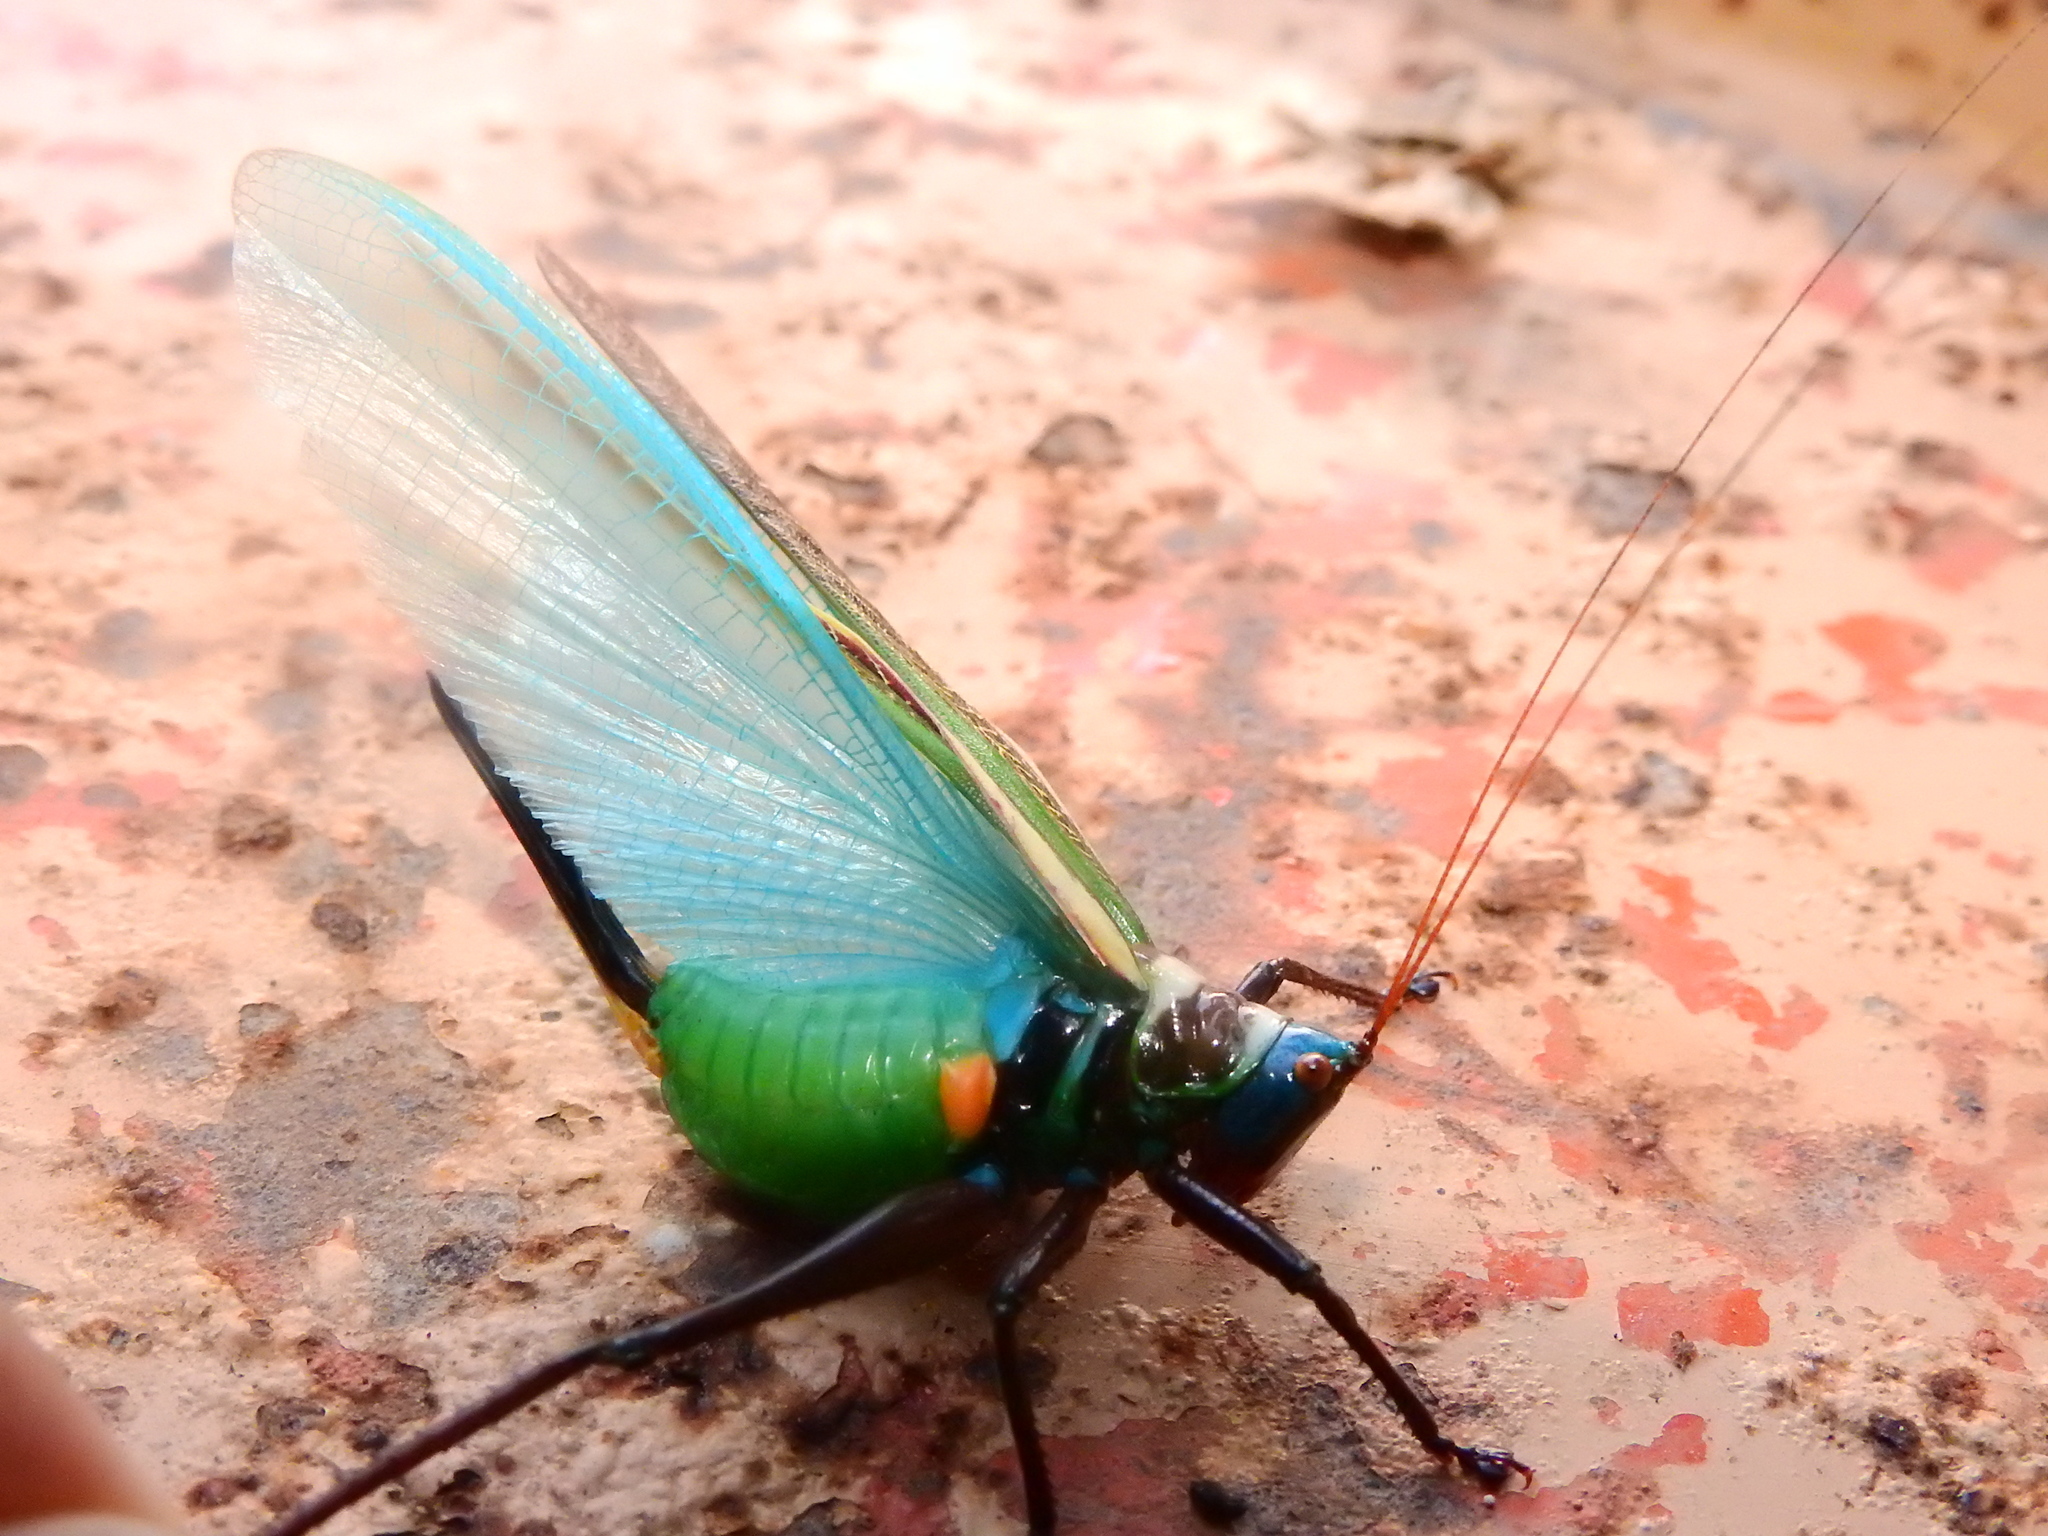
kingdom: Animalia
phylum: Arthropoda
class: Insecta
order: Orthoptera
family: Tettigoniidae
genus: Moncheca
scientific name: Moncheca pretiosa
